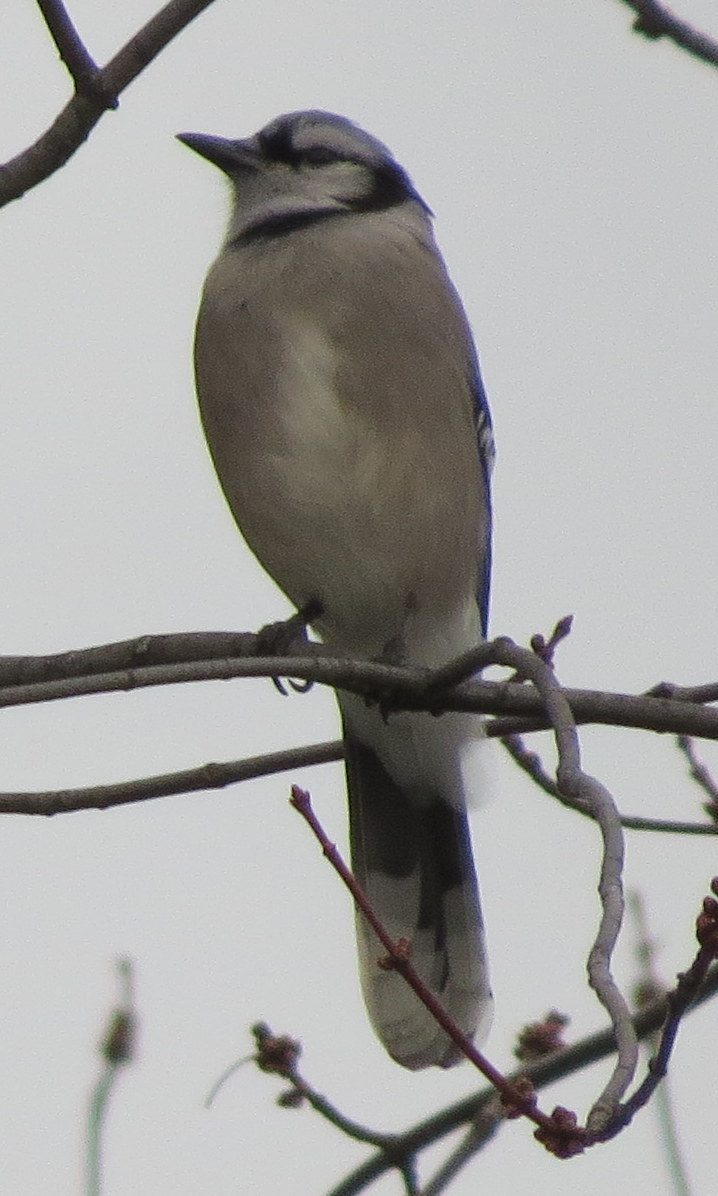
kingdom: Animalia
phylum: Chordata
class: Aves
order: Passeriformes
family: Corvidae
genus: Cyanocitta
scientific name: Cyanocitta cristata
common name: Blue jay
